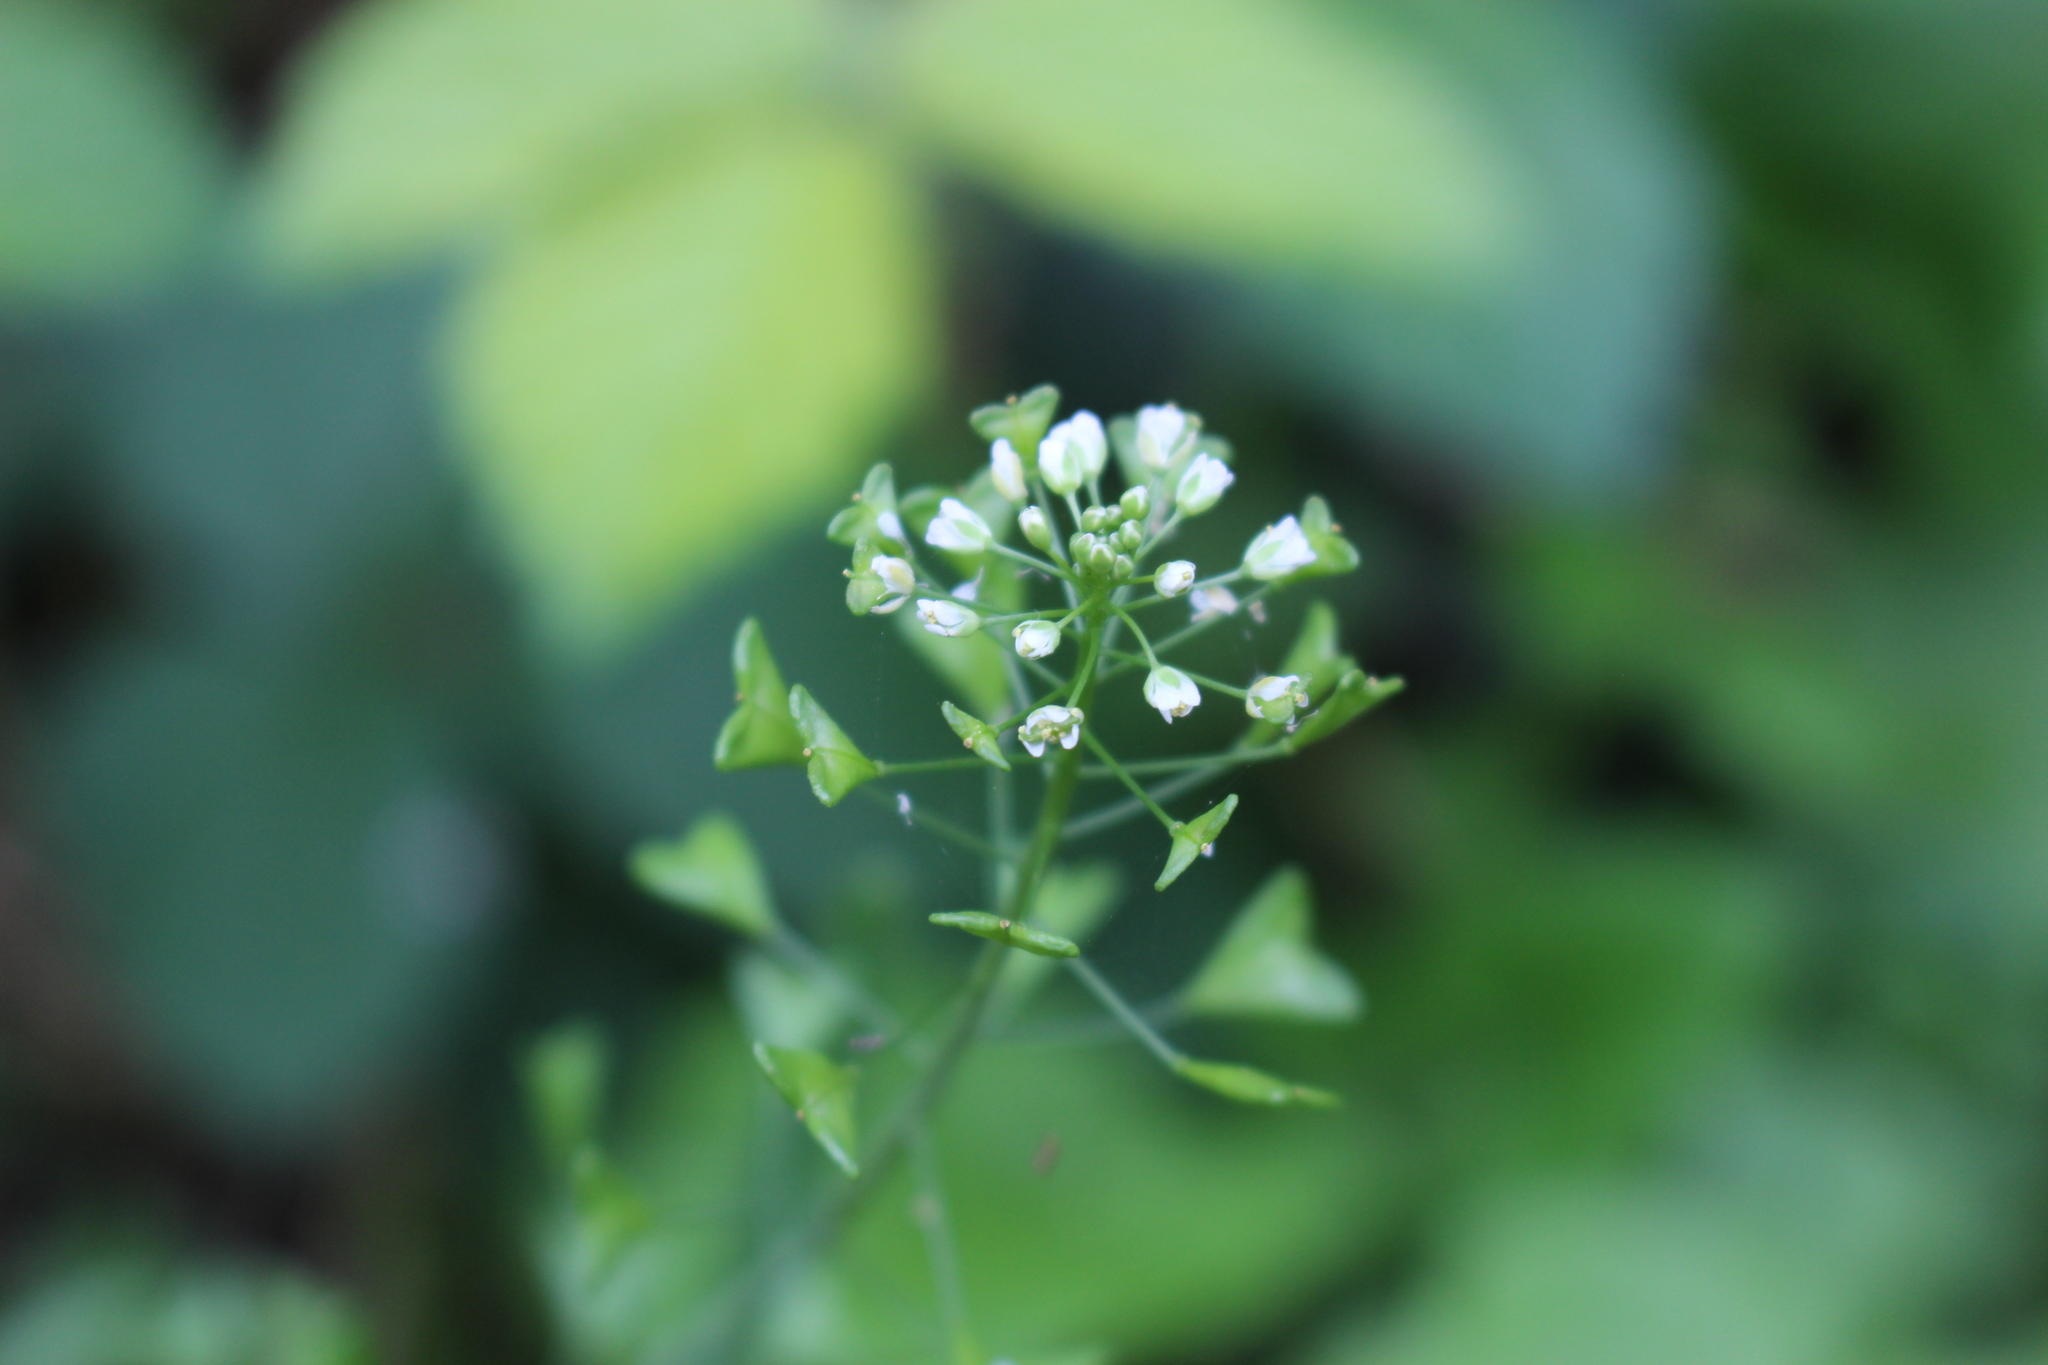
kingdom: Plantae
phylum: Tracheophyta
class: Magnoliopsida
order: Brassicales
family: Brassicaceae
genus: Capsella
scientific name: Capsella bursa-pastoris
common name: Shepherd's purse
